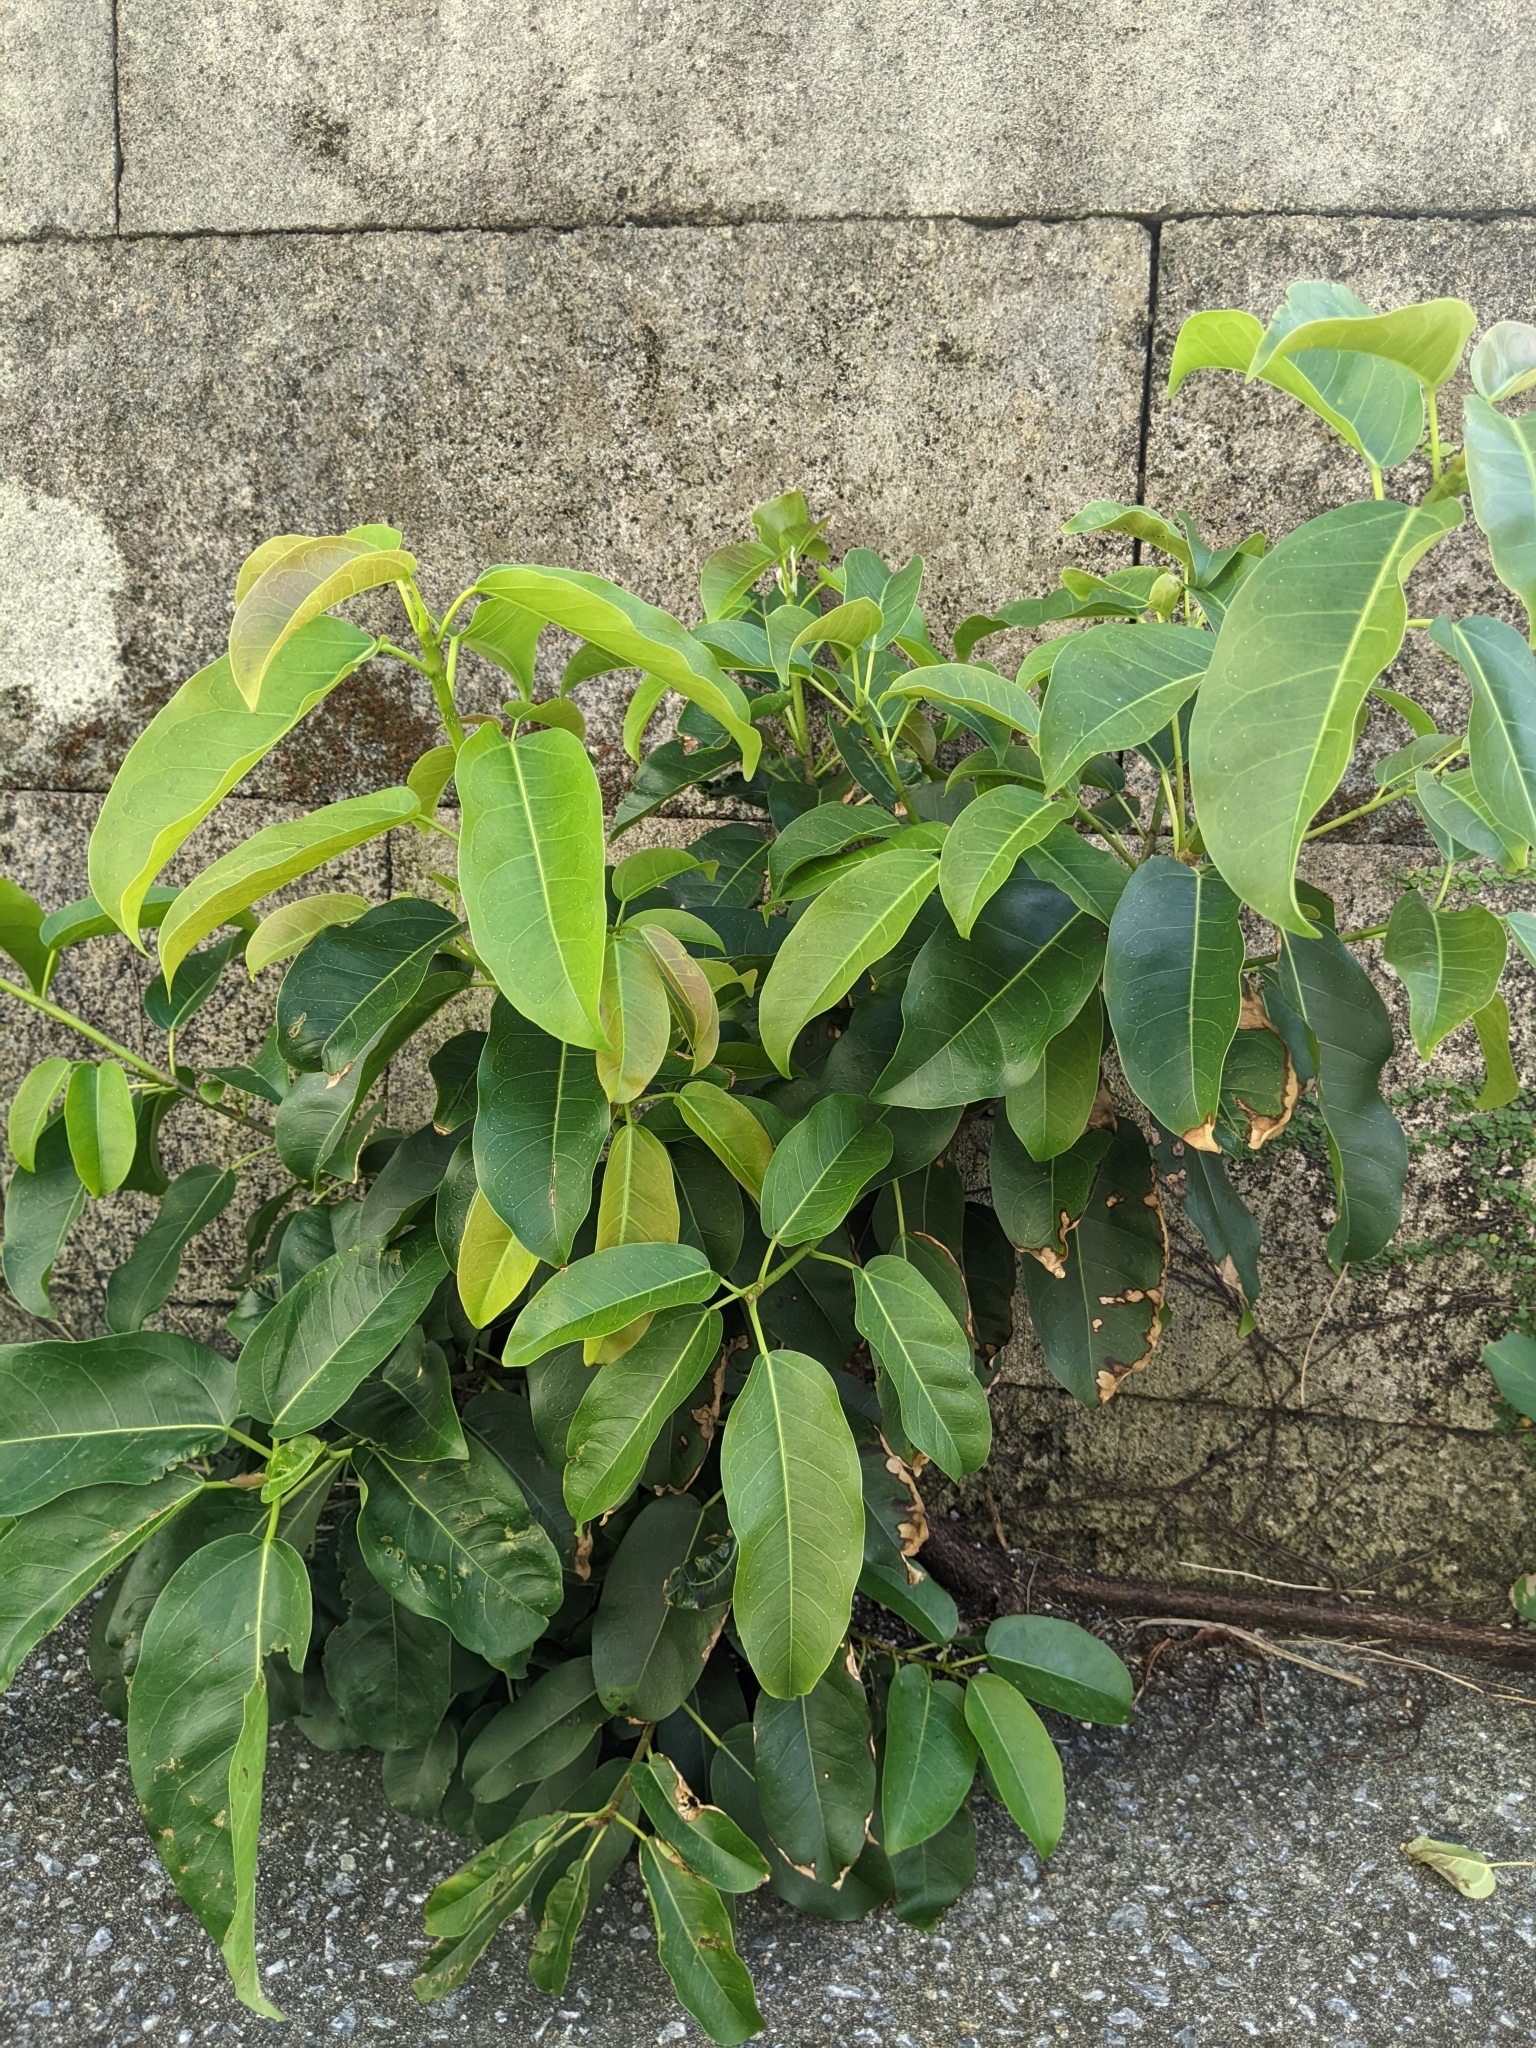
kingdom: Plantae
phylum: Tracheophyta
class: Magnoliopsida
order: Rosales
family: Moraceae
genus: Ficus
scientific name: Ficus subpisocarpa
